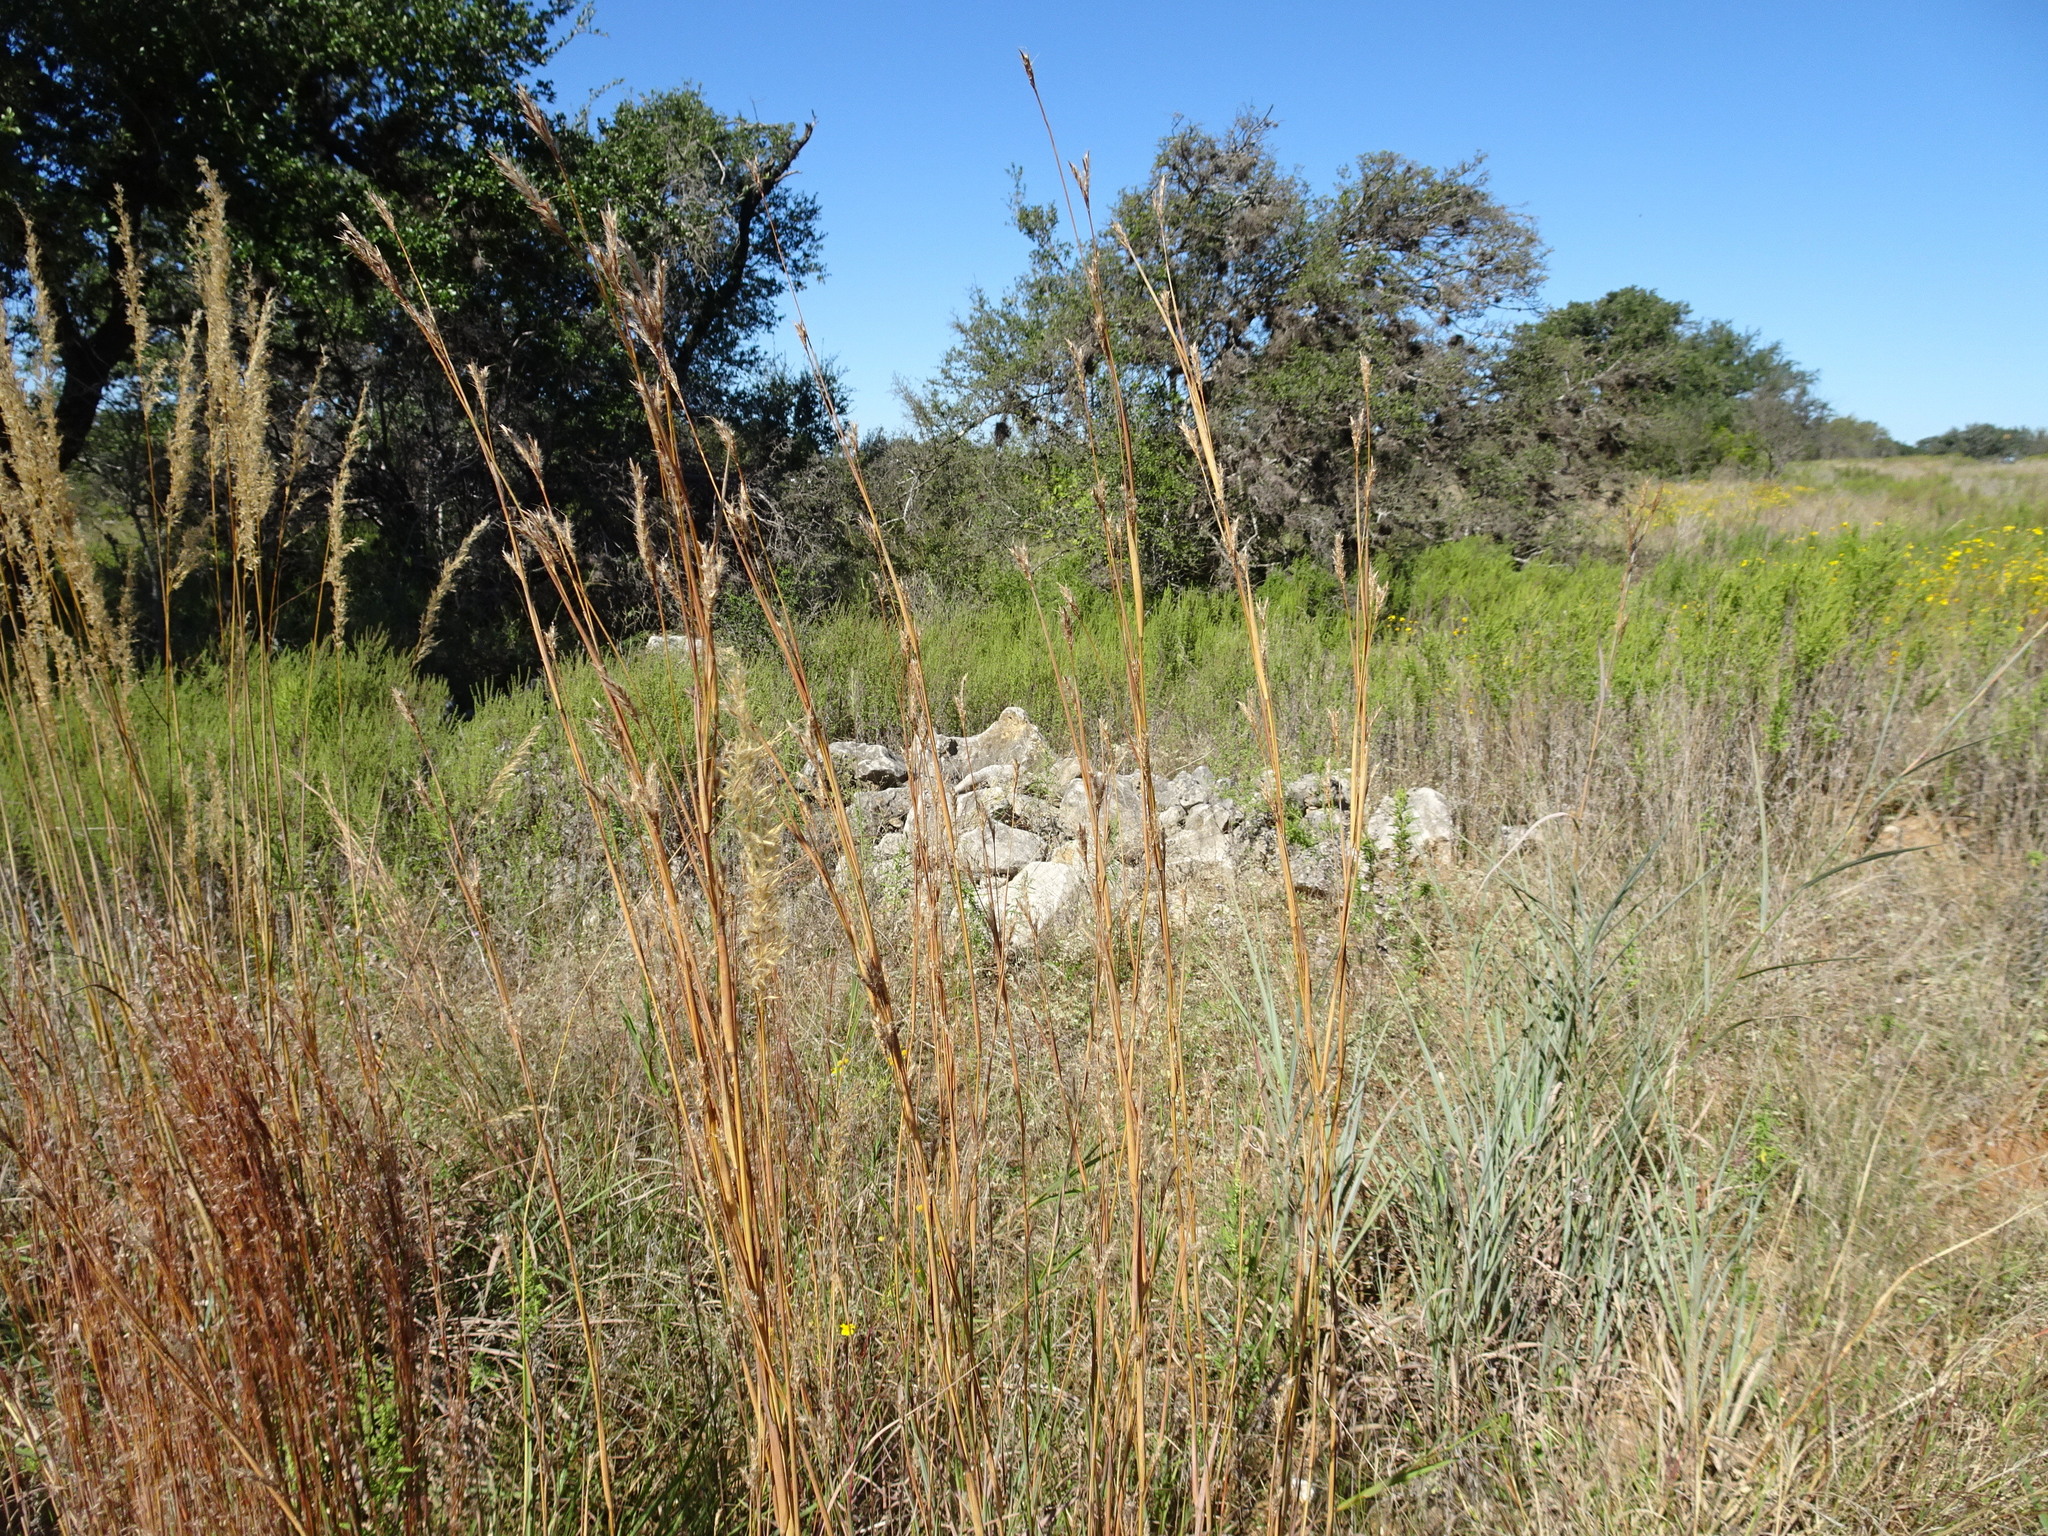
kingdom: Plantae
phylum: Tracheophyta
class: Liliopsida
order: Poales
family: Poaceae
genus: Andropogon
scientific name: Andropogon gerardi
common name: Big bluestem
